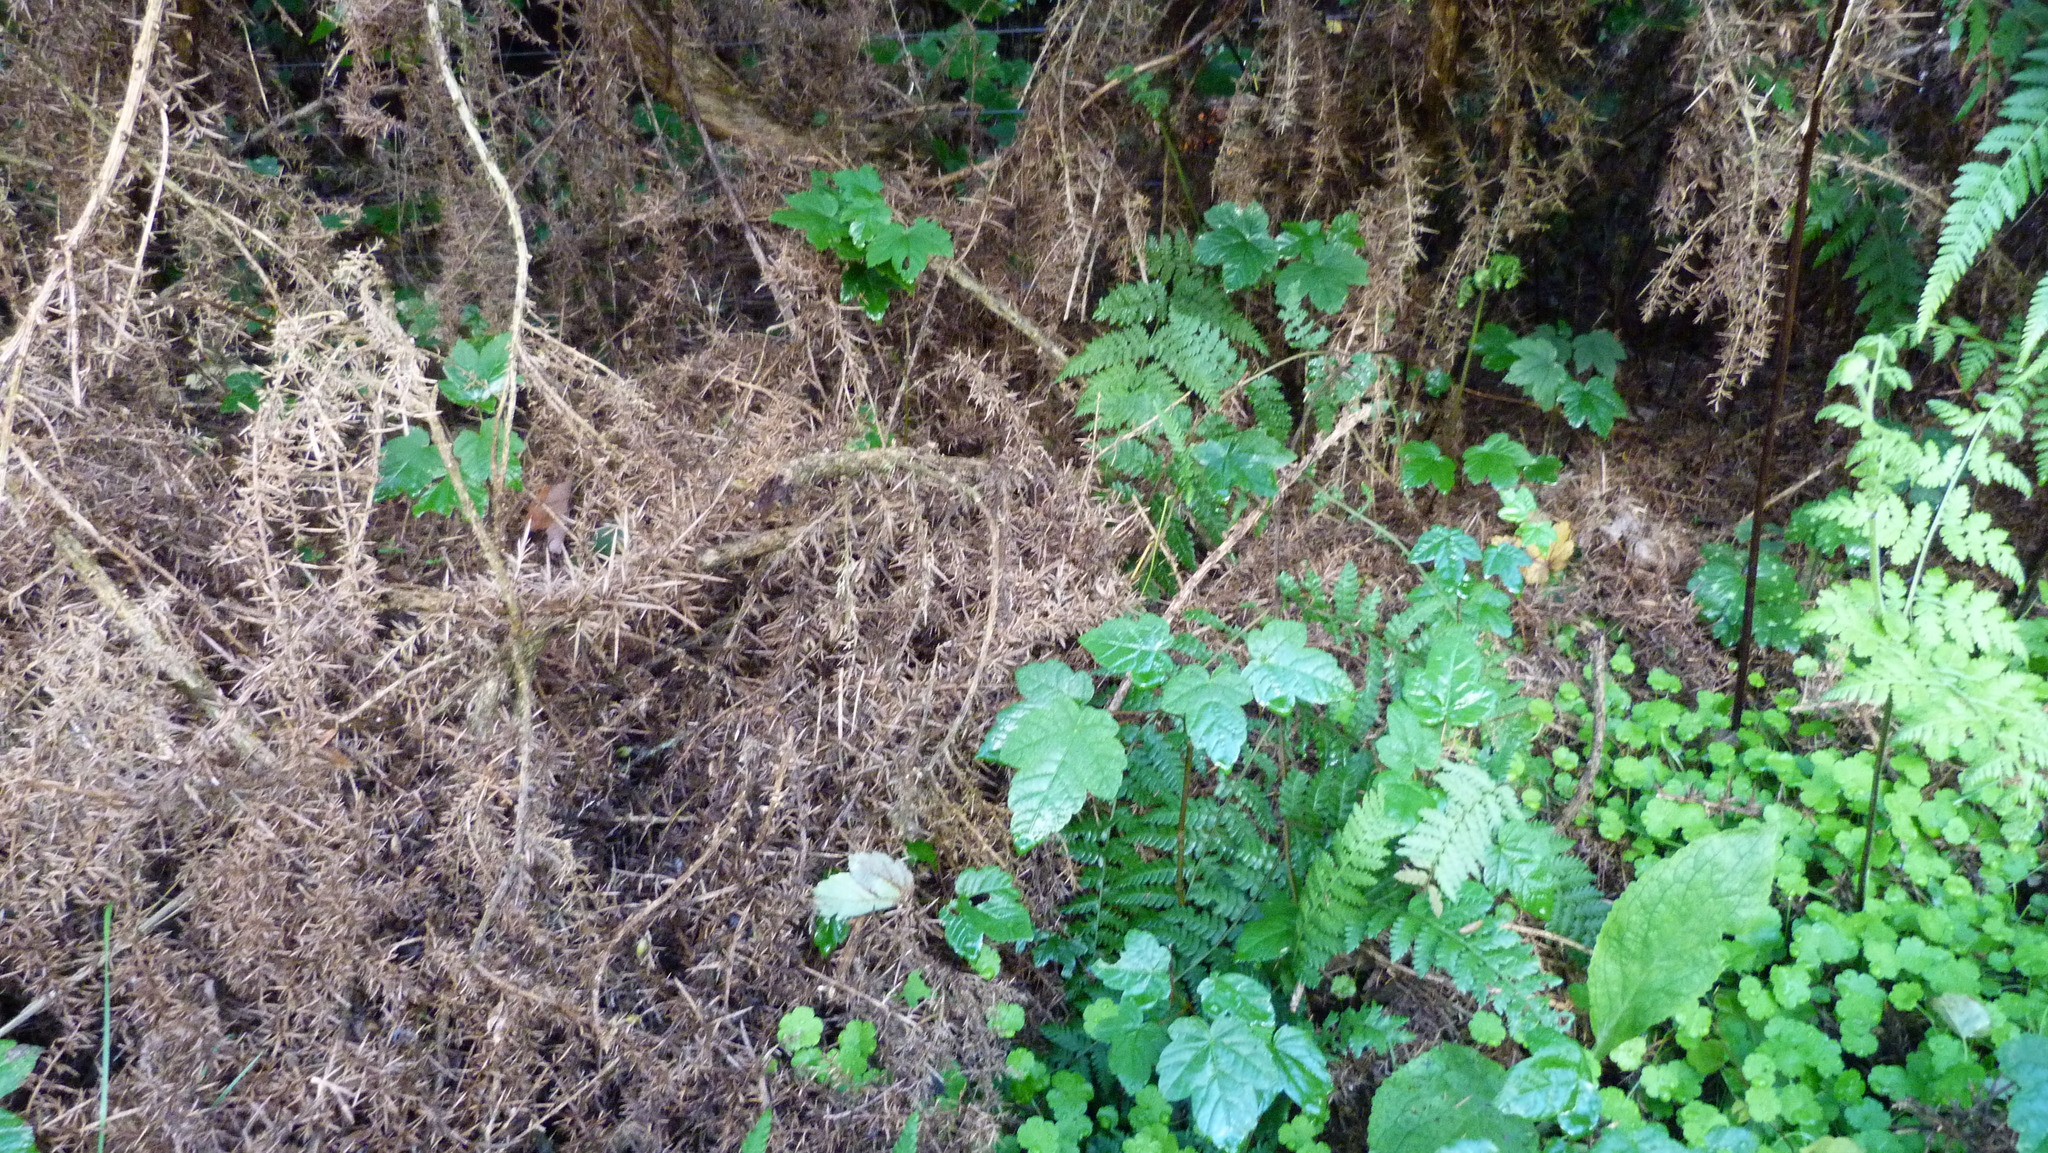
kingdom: Plantae
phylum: Tracheophyta
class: Magnoliopsida
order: Sapindales
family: Sapindaceae
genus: Acer
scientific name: Acer pseudoplatanus
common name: Sycamore
